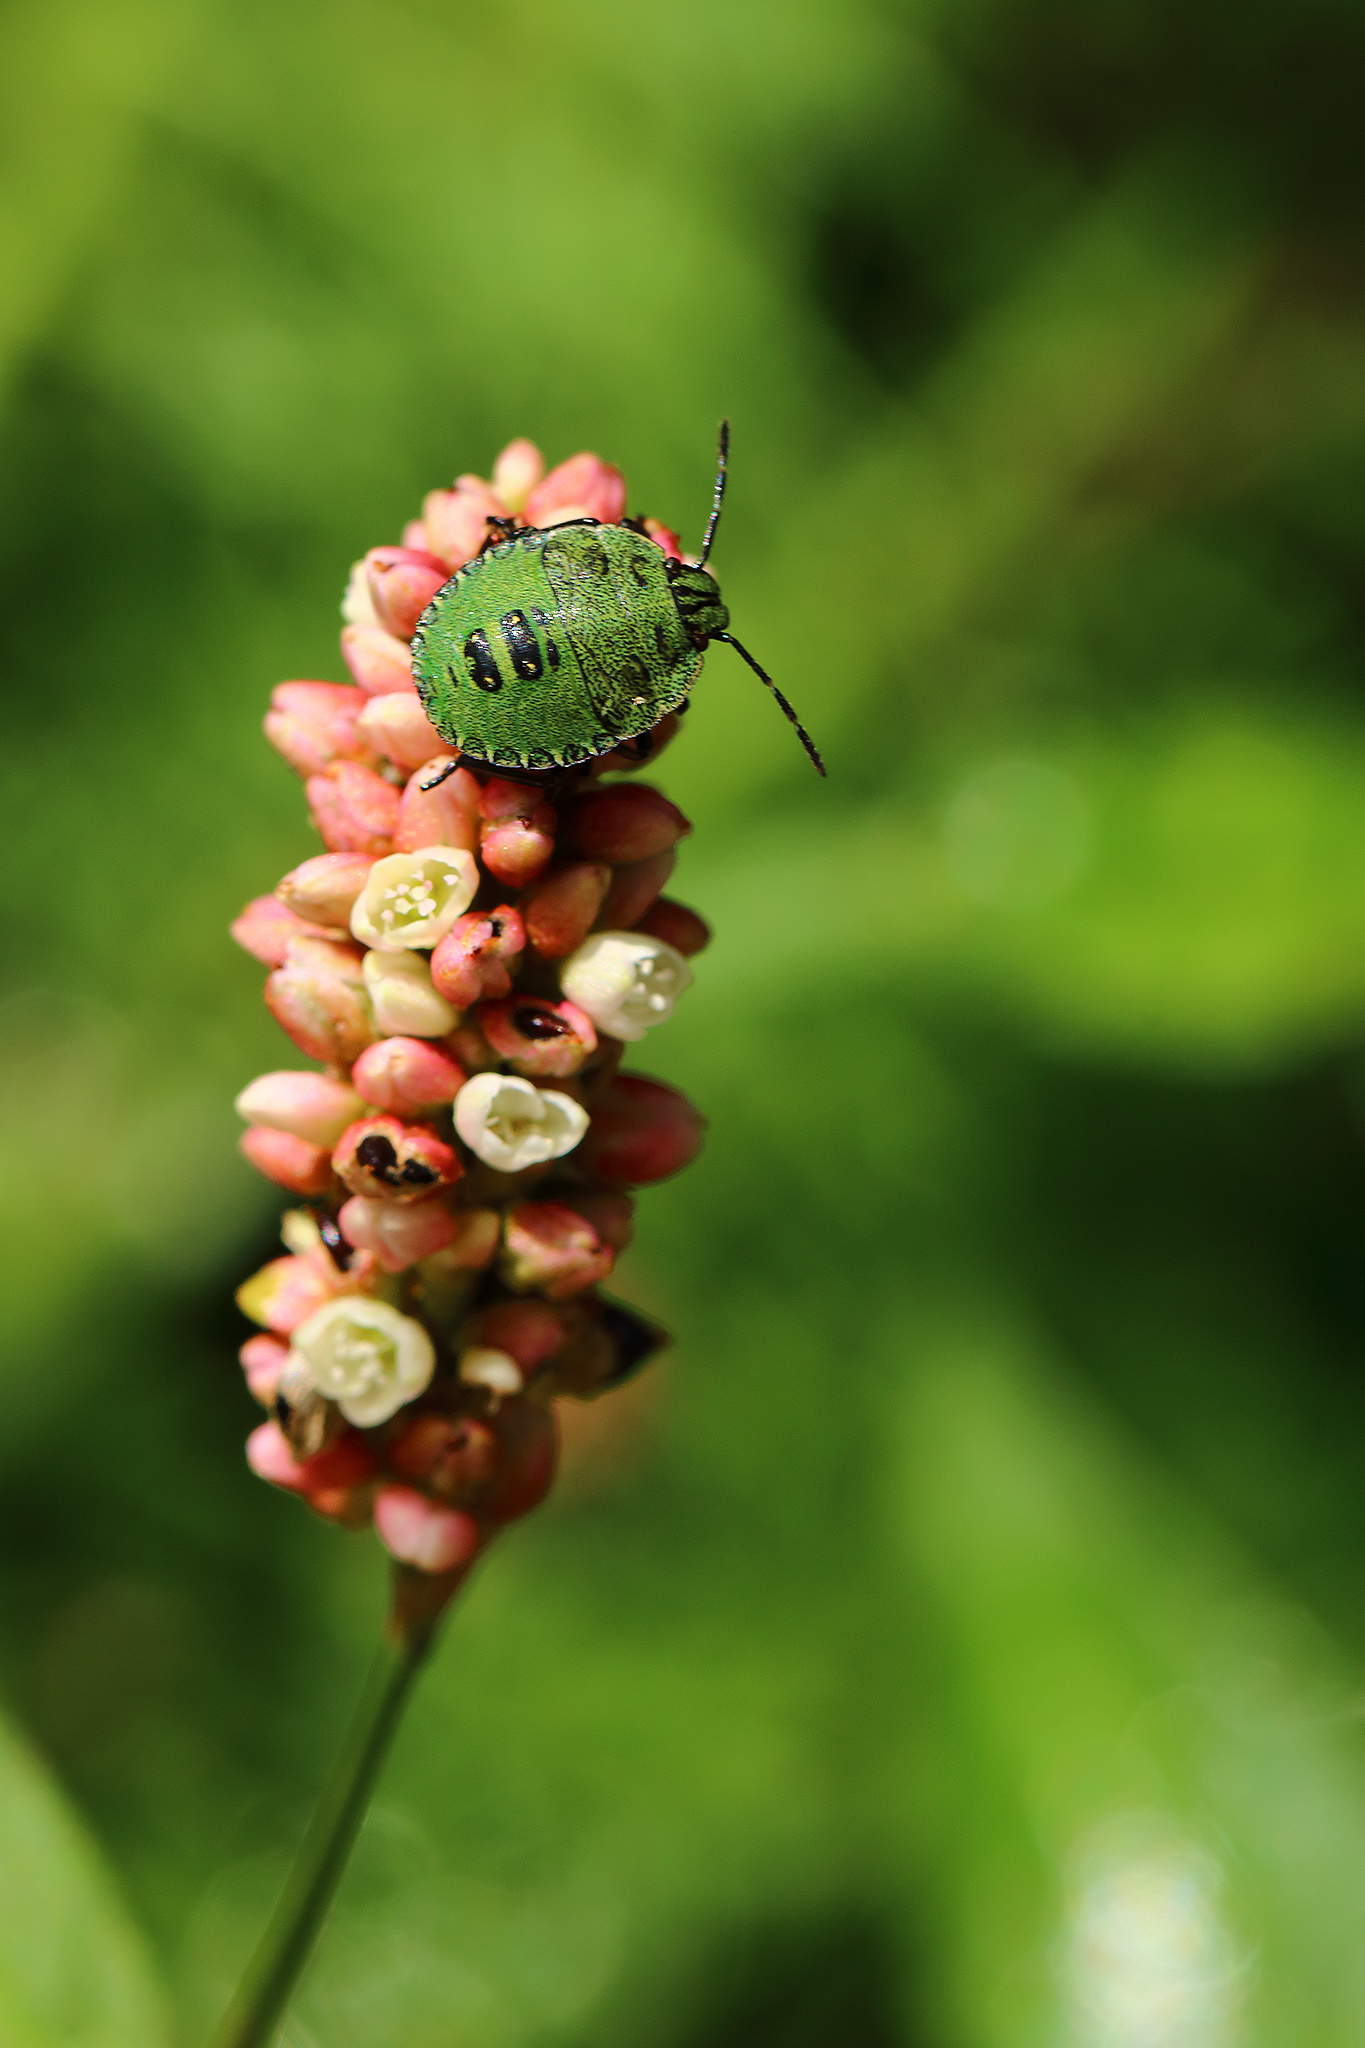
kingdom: Animalia
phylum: Arthropoda
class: Insecta
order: Hemiptera
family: Pentatomidae
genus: Palomena
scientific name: Palomena prasina
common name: Green shieldbug
